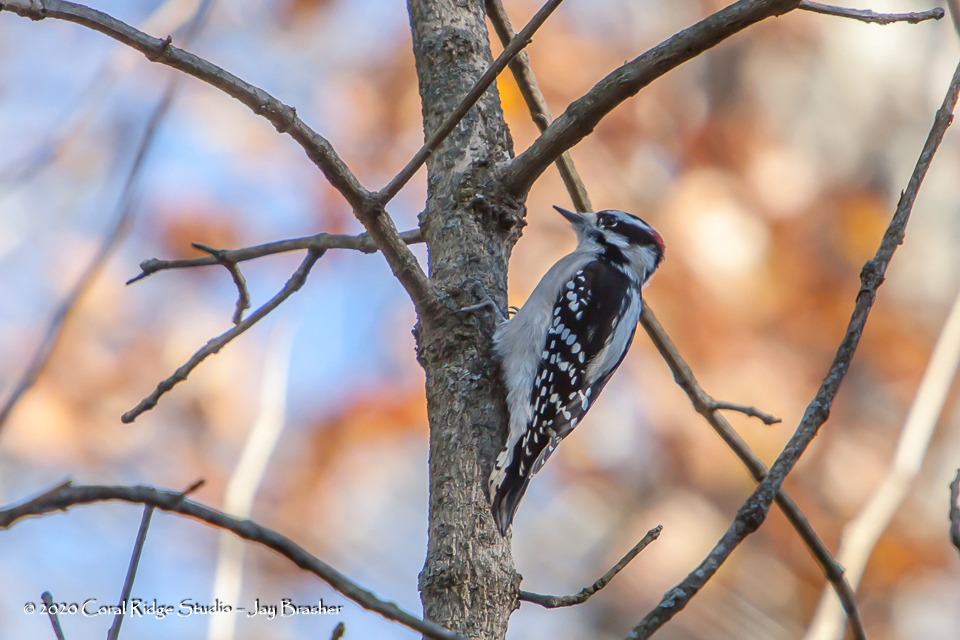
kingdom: Animalia
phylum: Chordata
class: Aves
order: Piciformes
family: Picidae
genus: Dryobates
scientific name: Dryobates pubescens
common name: Downy woodpecker
